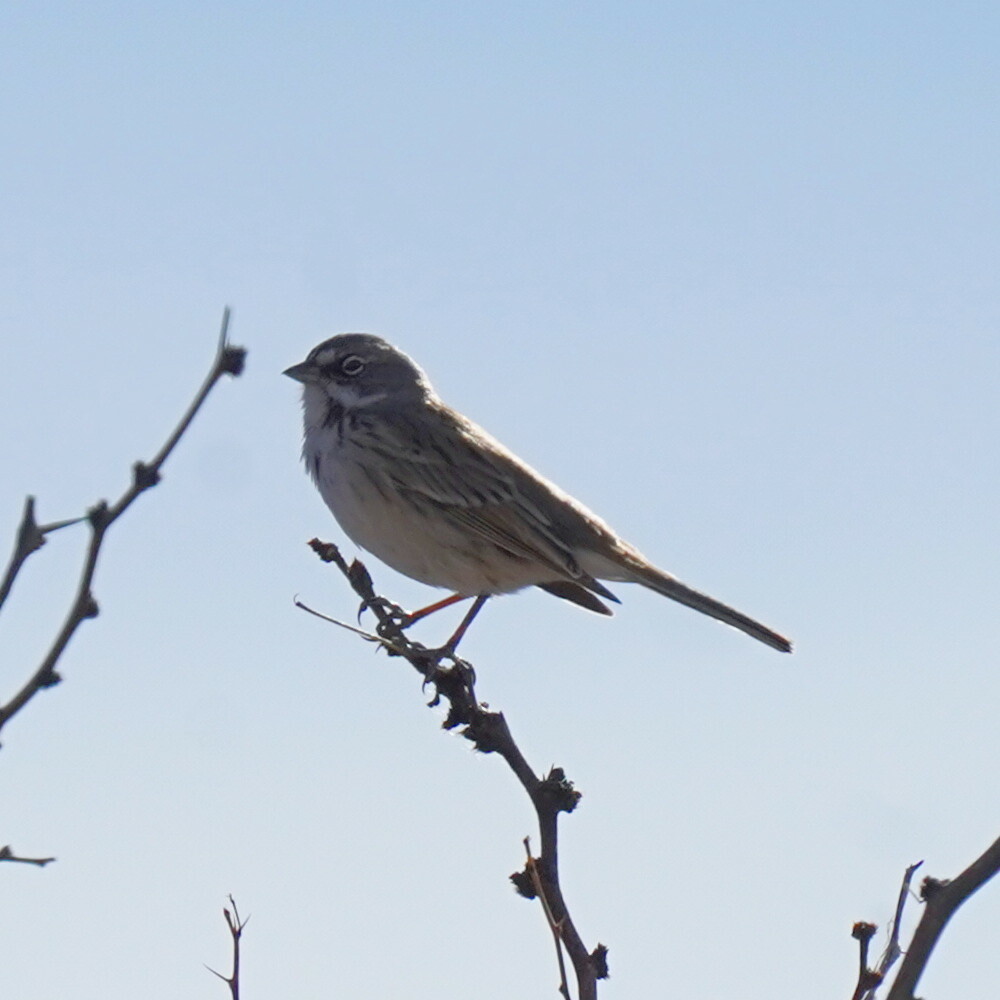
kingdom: Animalia
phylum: Chordata
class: Aves
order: Passeriformes
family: Passerellidae
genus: Artemisiospiza
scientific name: Artemisiospiza nevadensis
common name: Sagebrush sparrow
